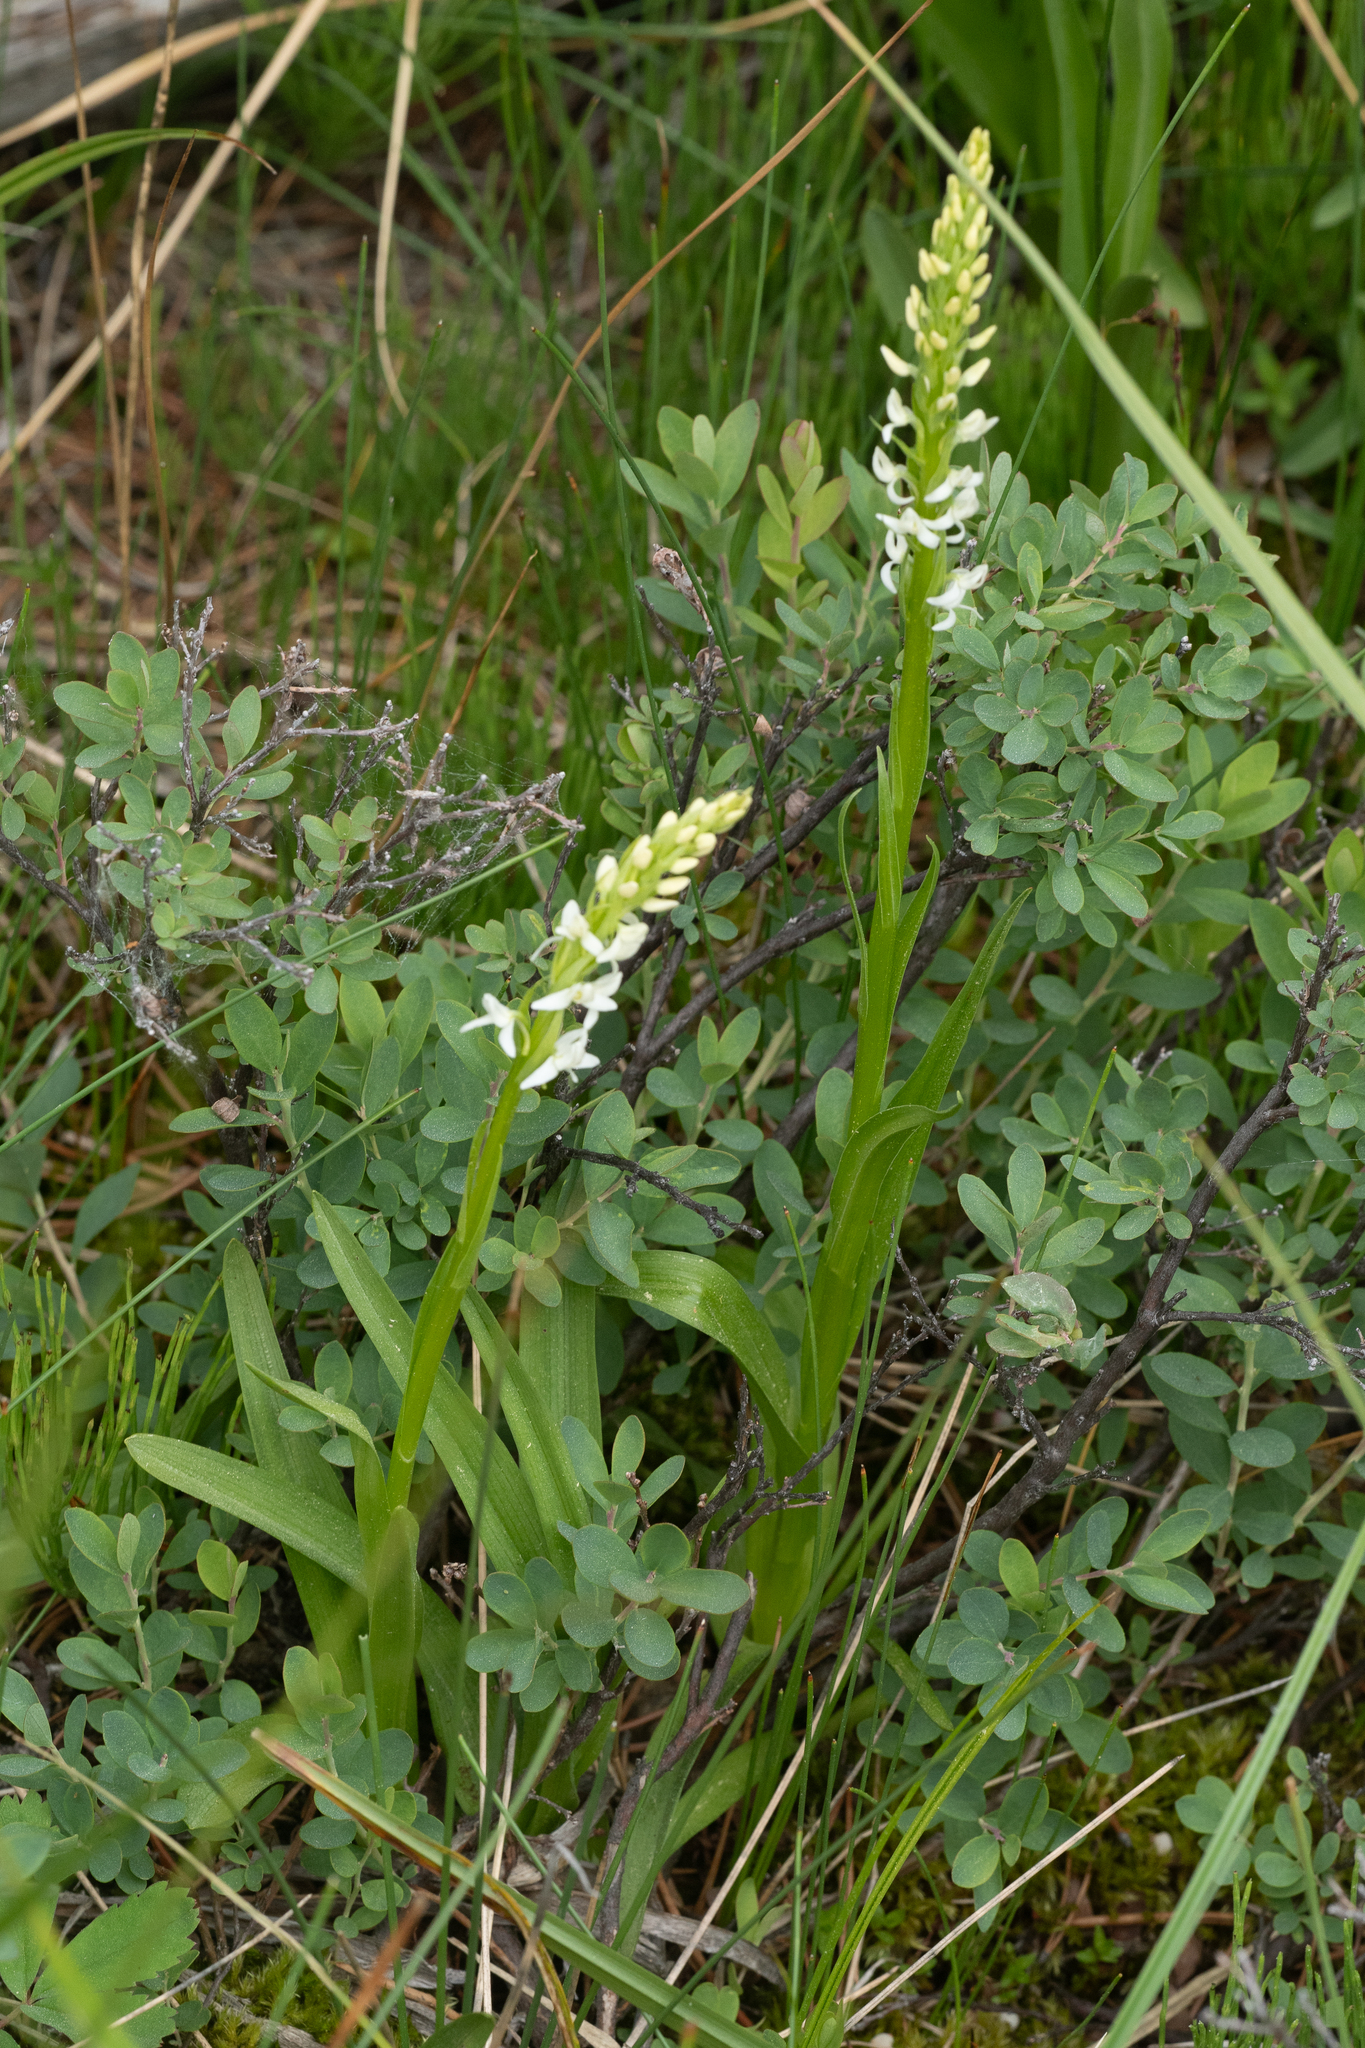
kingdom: Plantae
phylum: Tracheophyta
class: Liliopsida
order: Asparagales
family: Orchidaceae
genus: Platanthera
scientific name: Platanthera dilatata
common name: Bog candles
